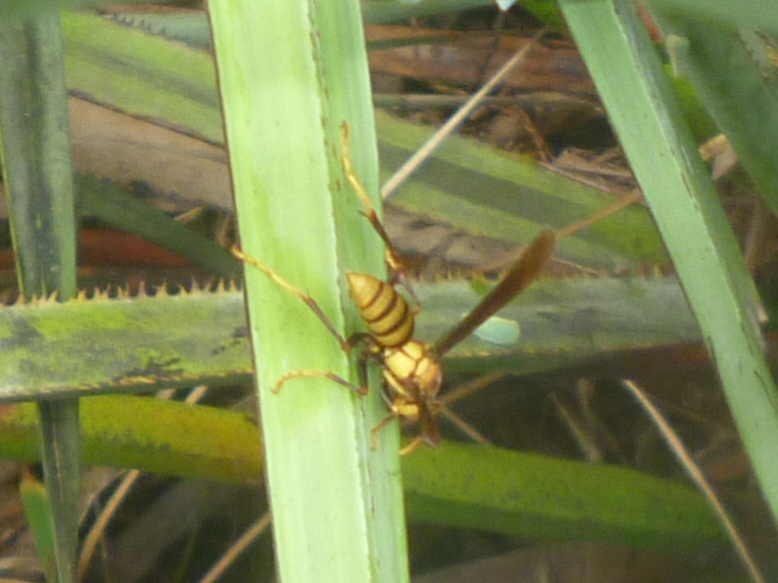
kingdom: Animalia
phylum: Arthropoda
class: Insecta
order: Hymenoptera
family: Eumenidae
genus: Polistes
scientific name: Polistes major
